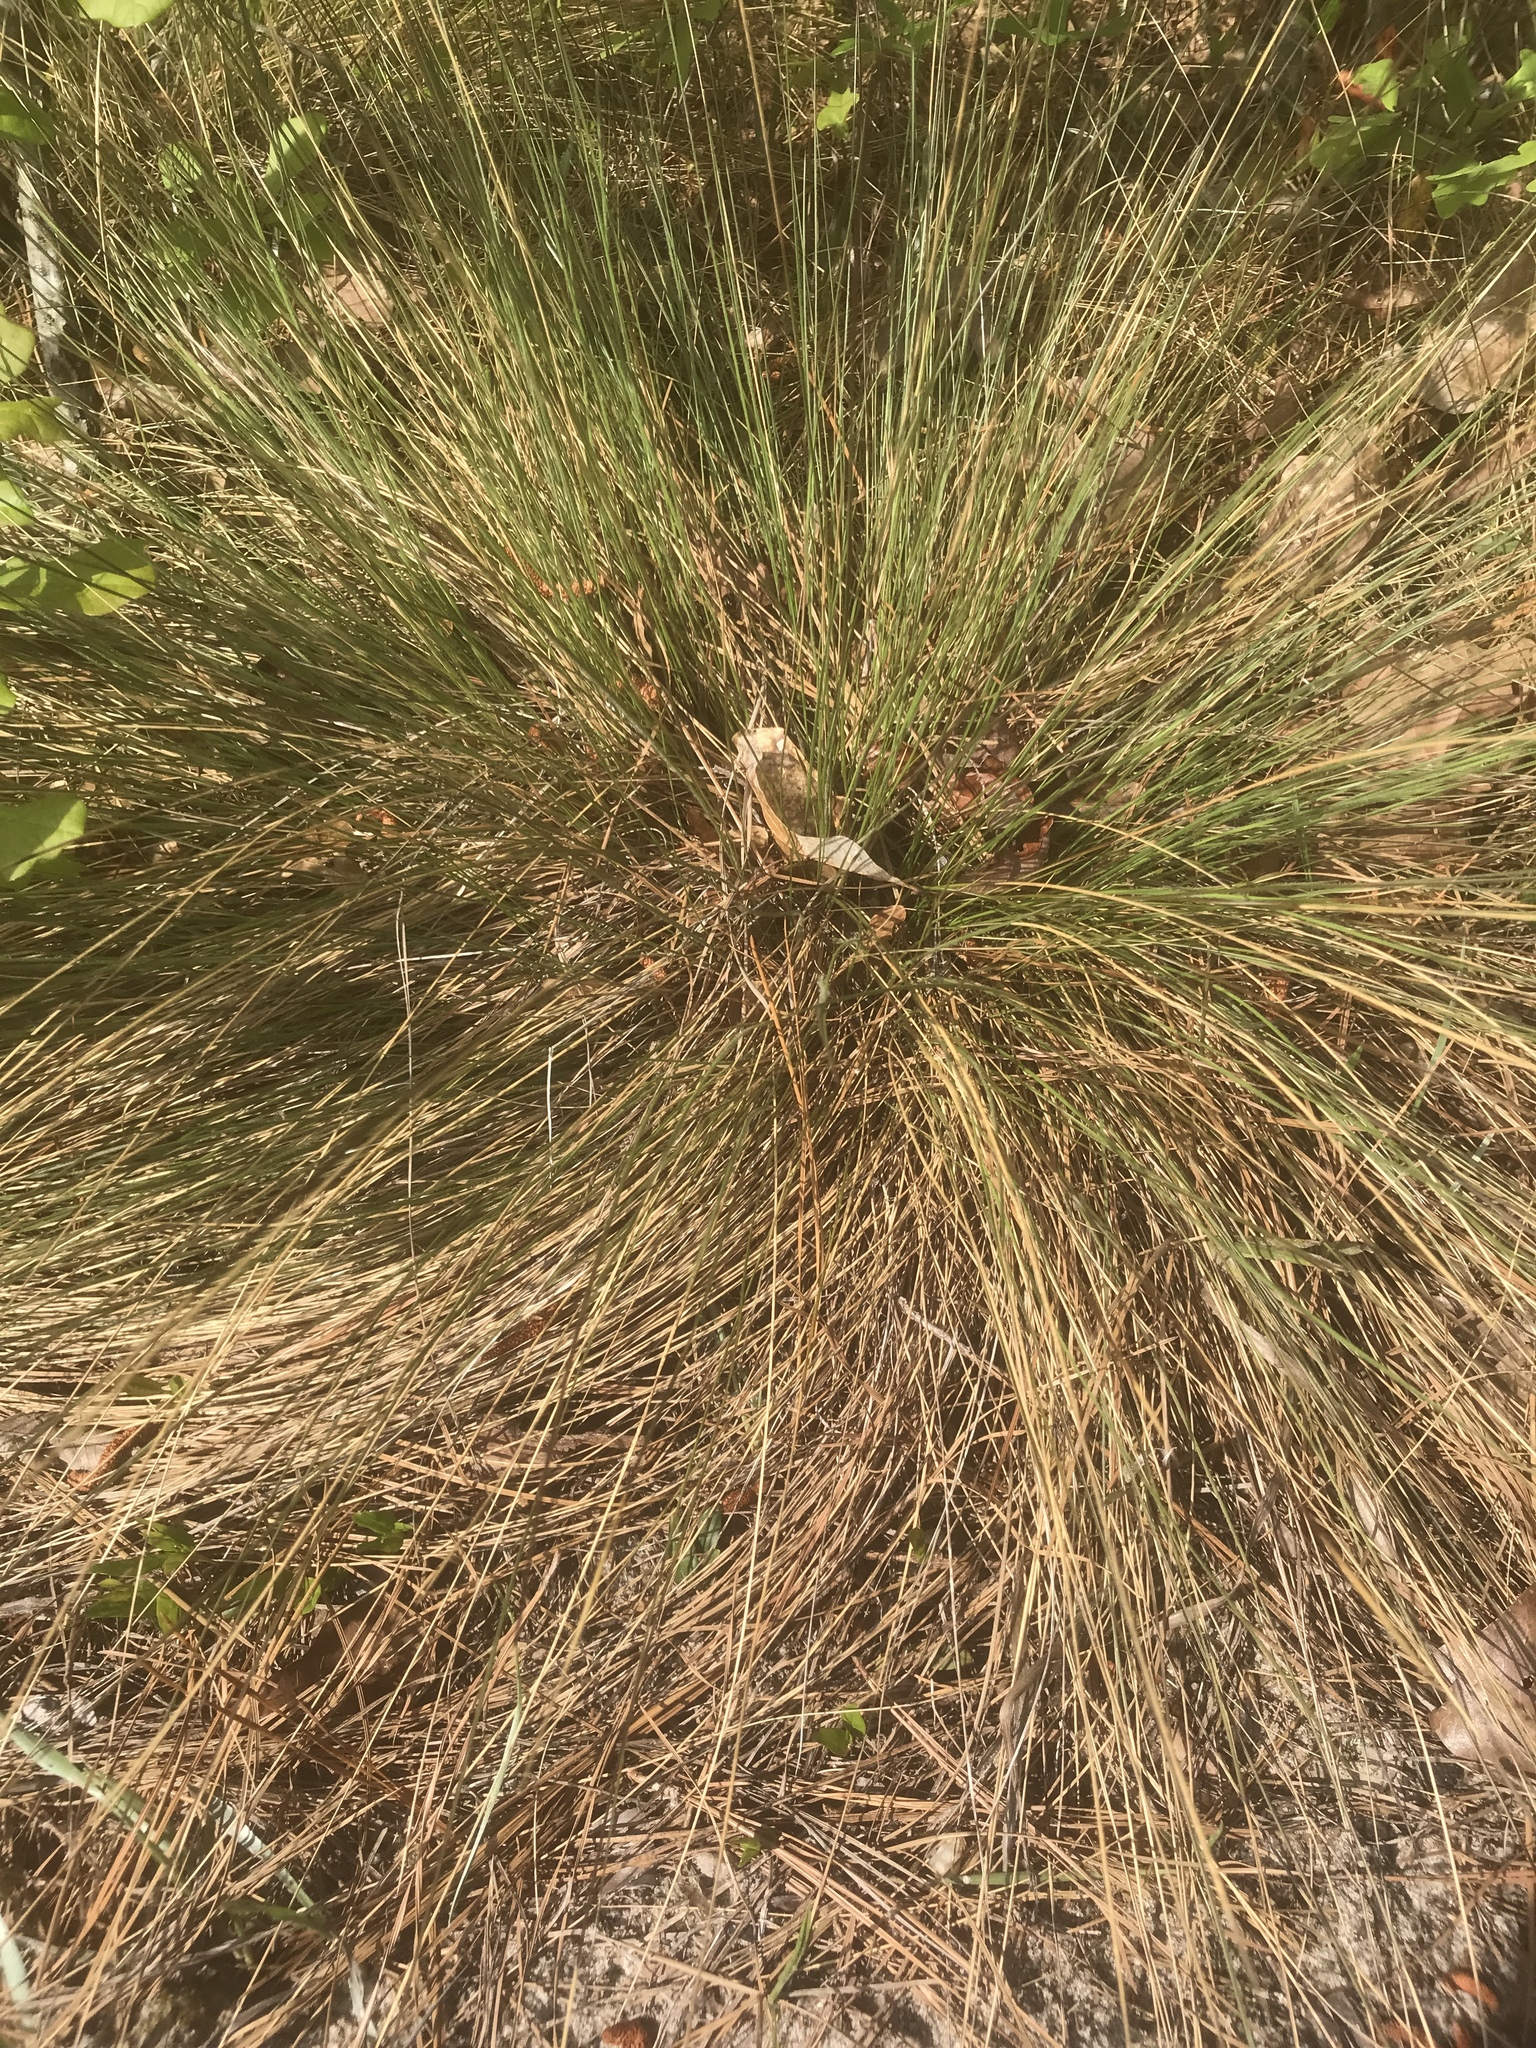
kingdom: Plantae
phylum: Tracheophyta
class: Liliopsida
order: Poales
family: Poaceae
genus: Aristida
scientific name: Aristida stricta
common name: Pineland three-awn
